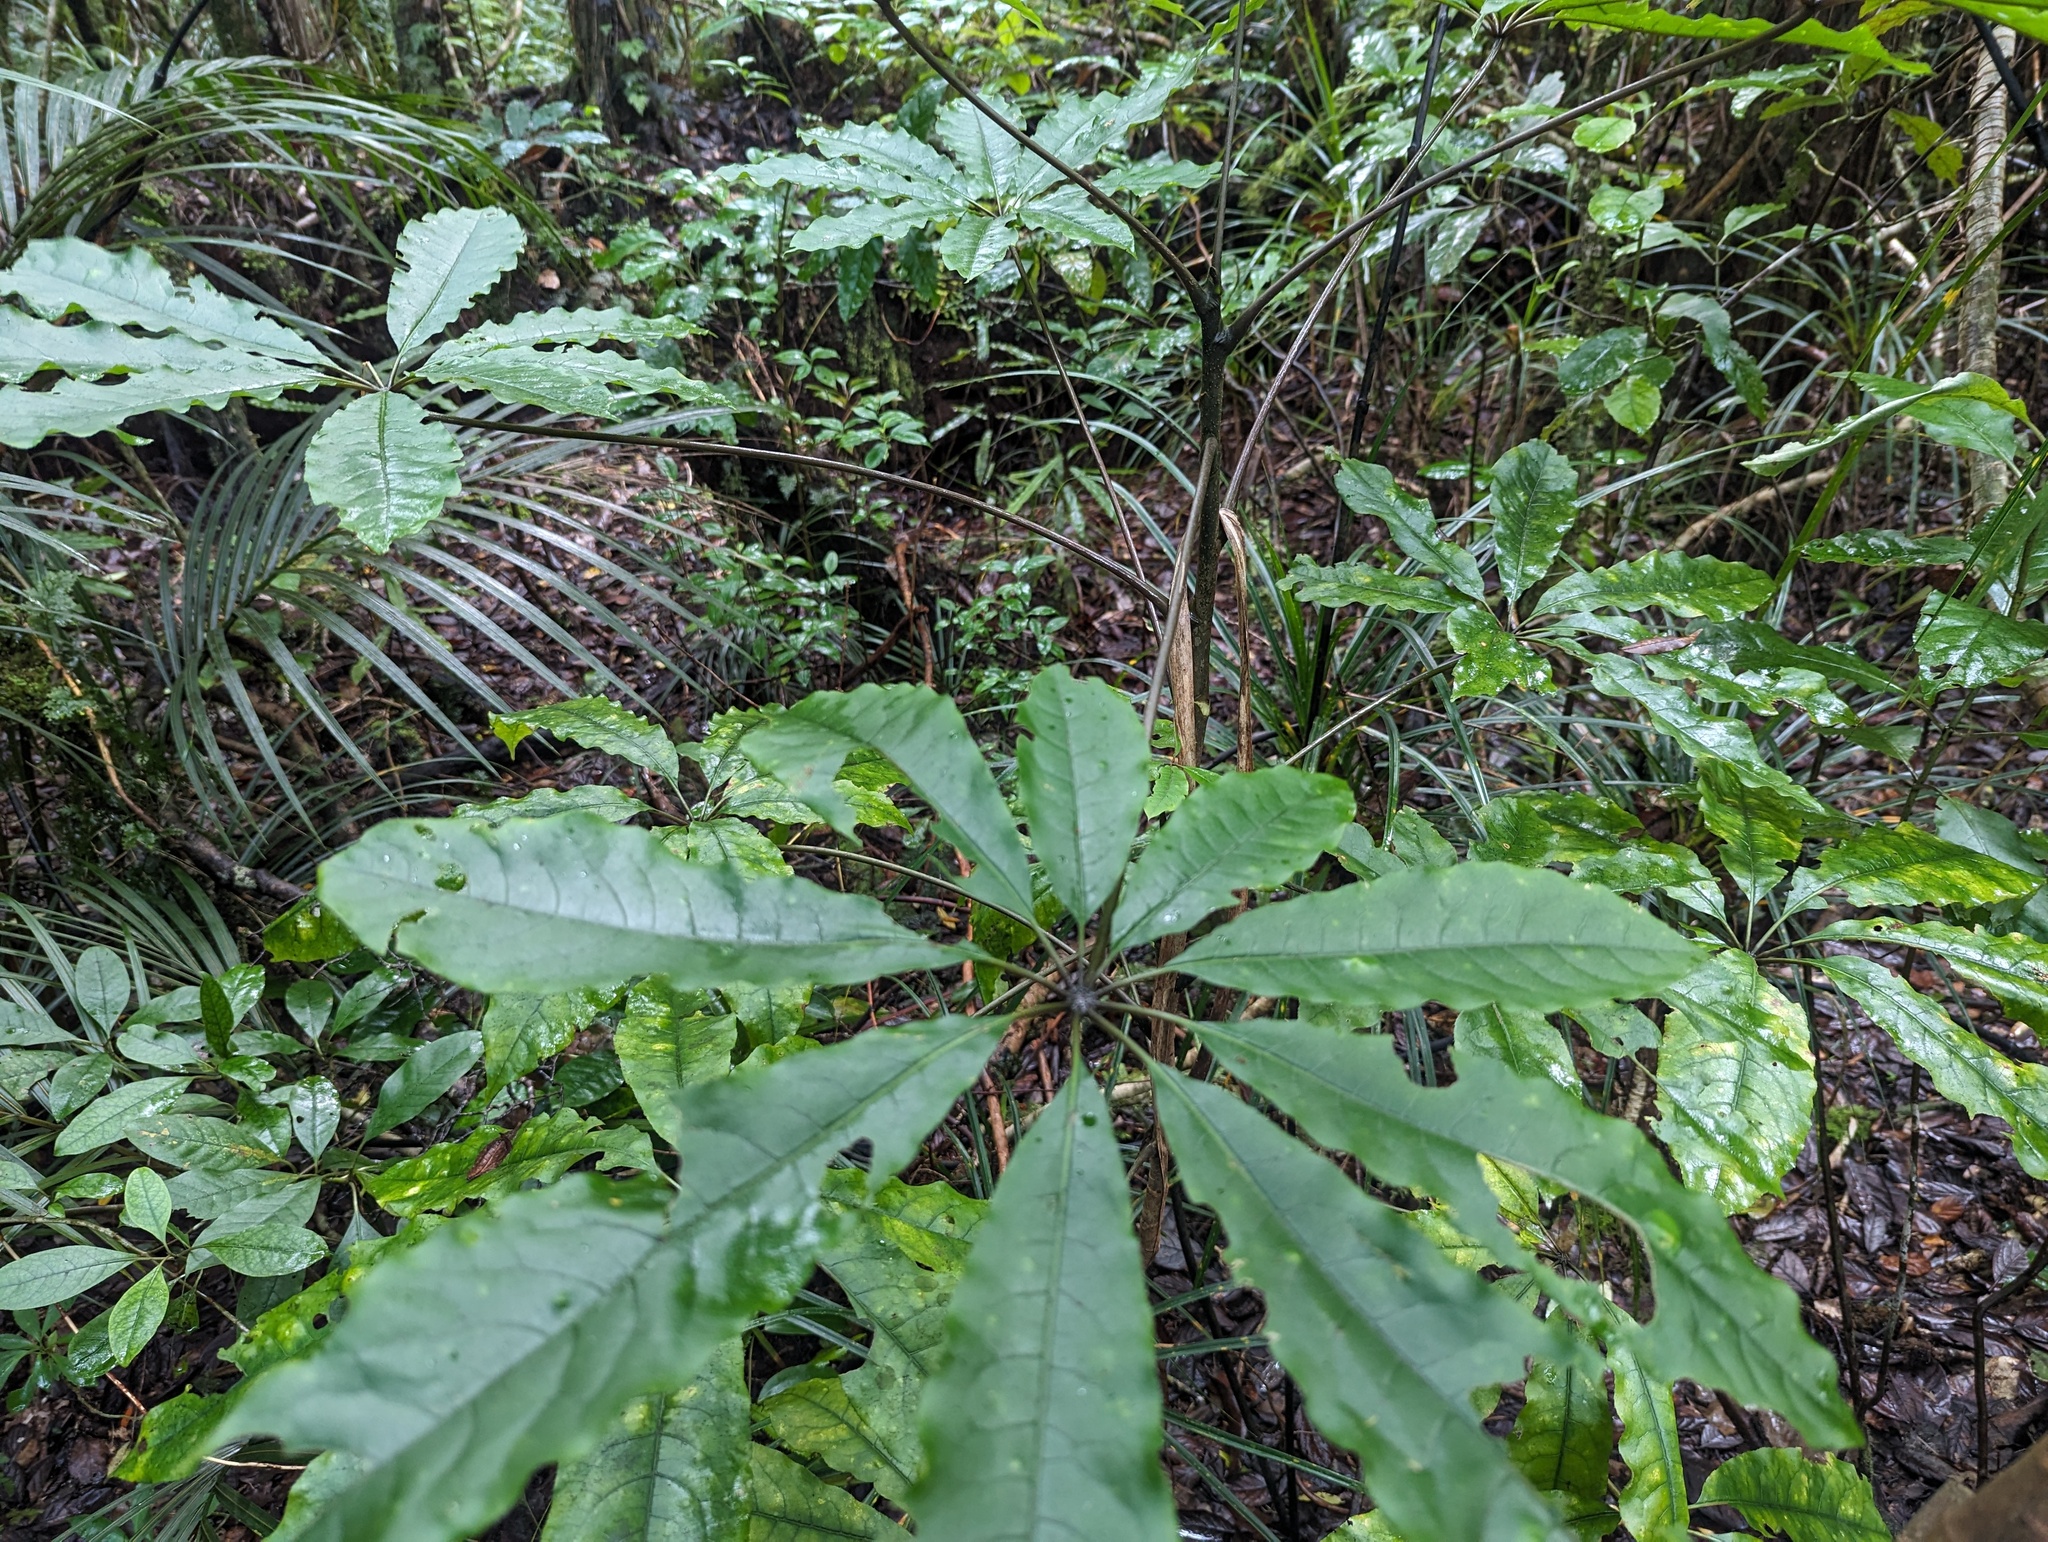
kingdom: Plantae
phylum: Tracheophyta
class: Magnoliopsida
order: Apiales
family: Araliaceae
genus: Schefflera
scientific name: Schefflera digitata
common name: Pate
